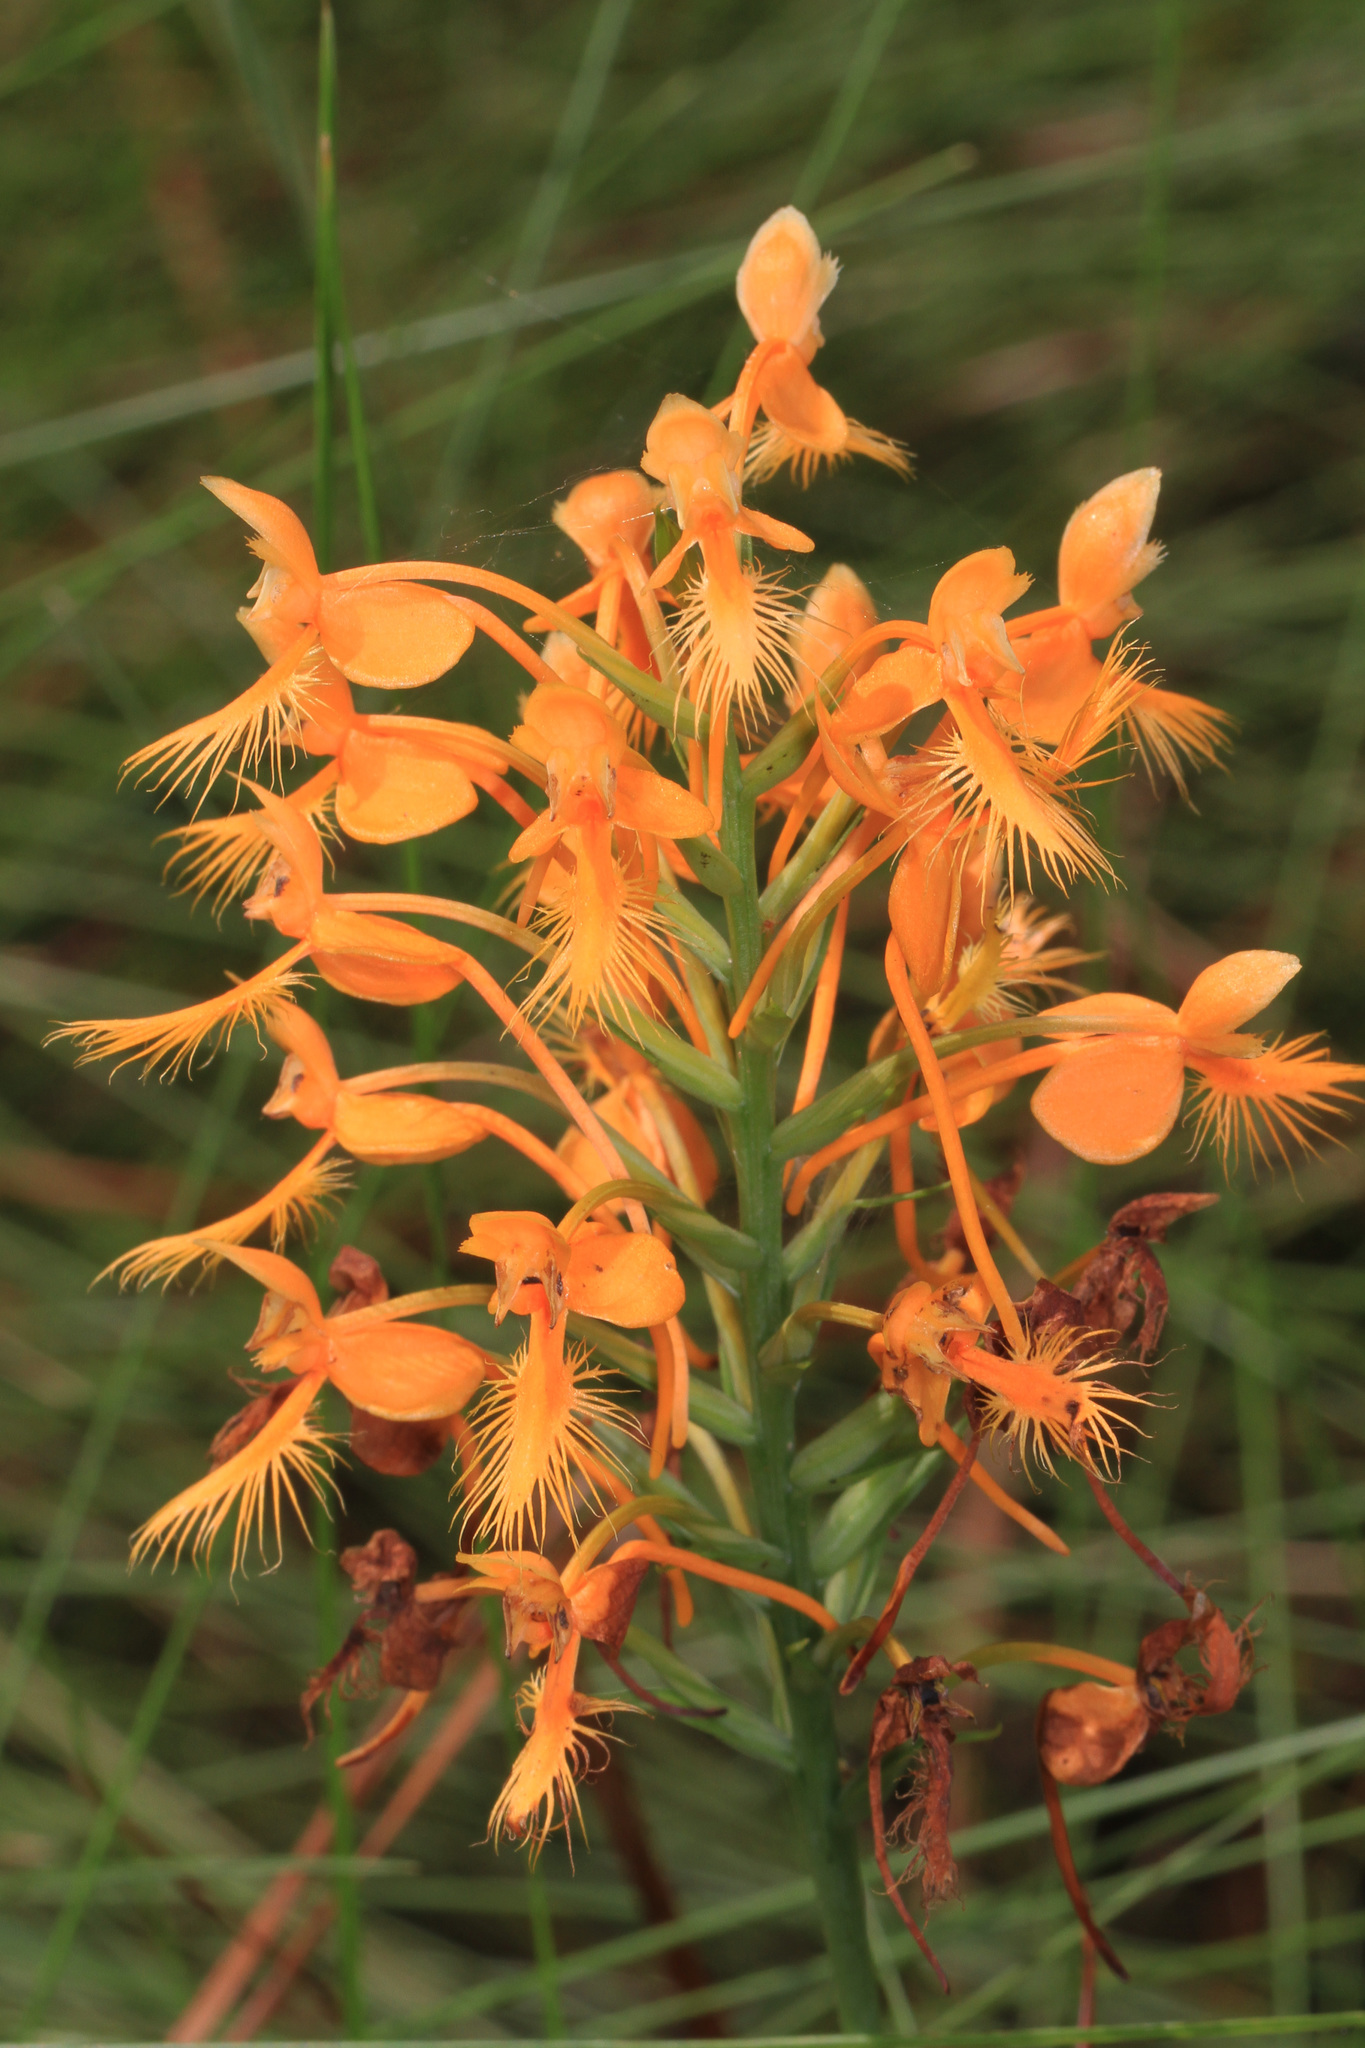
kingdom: Plantae
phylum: Tracheophyta
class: Liliopsida
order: Asparagales
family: Orchidaceae
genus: Platanthera
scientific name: Platanthera ciliaris
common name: Yellow fringed orchid
